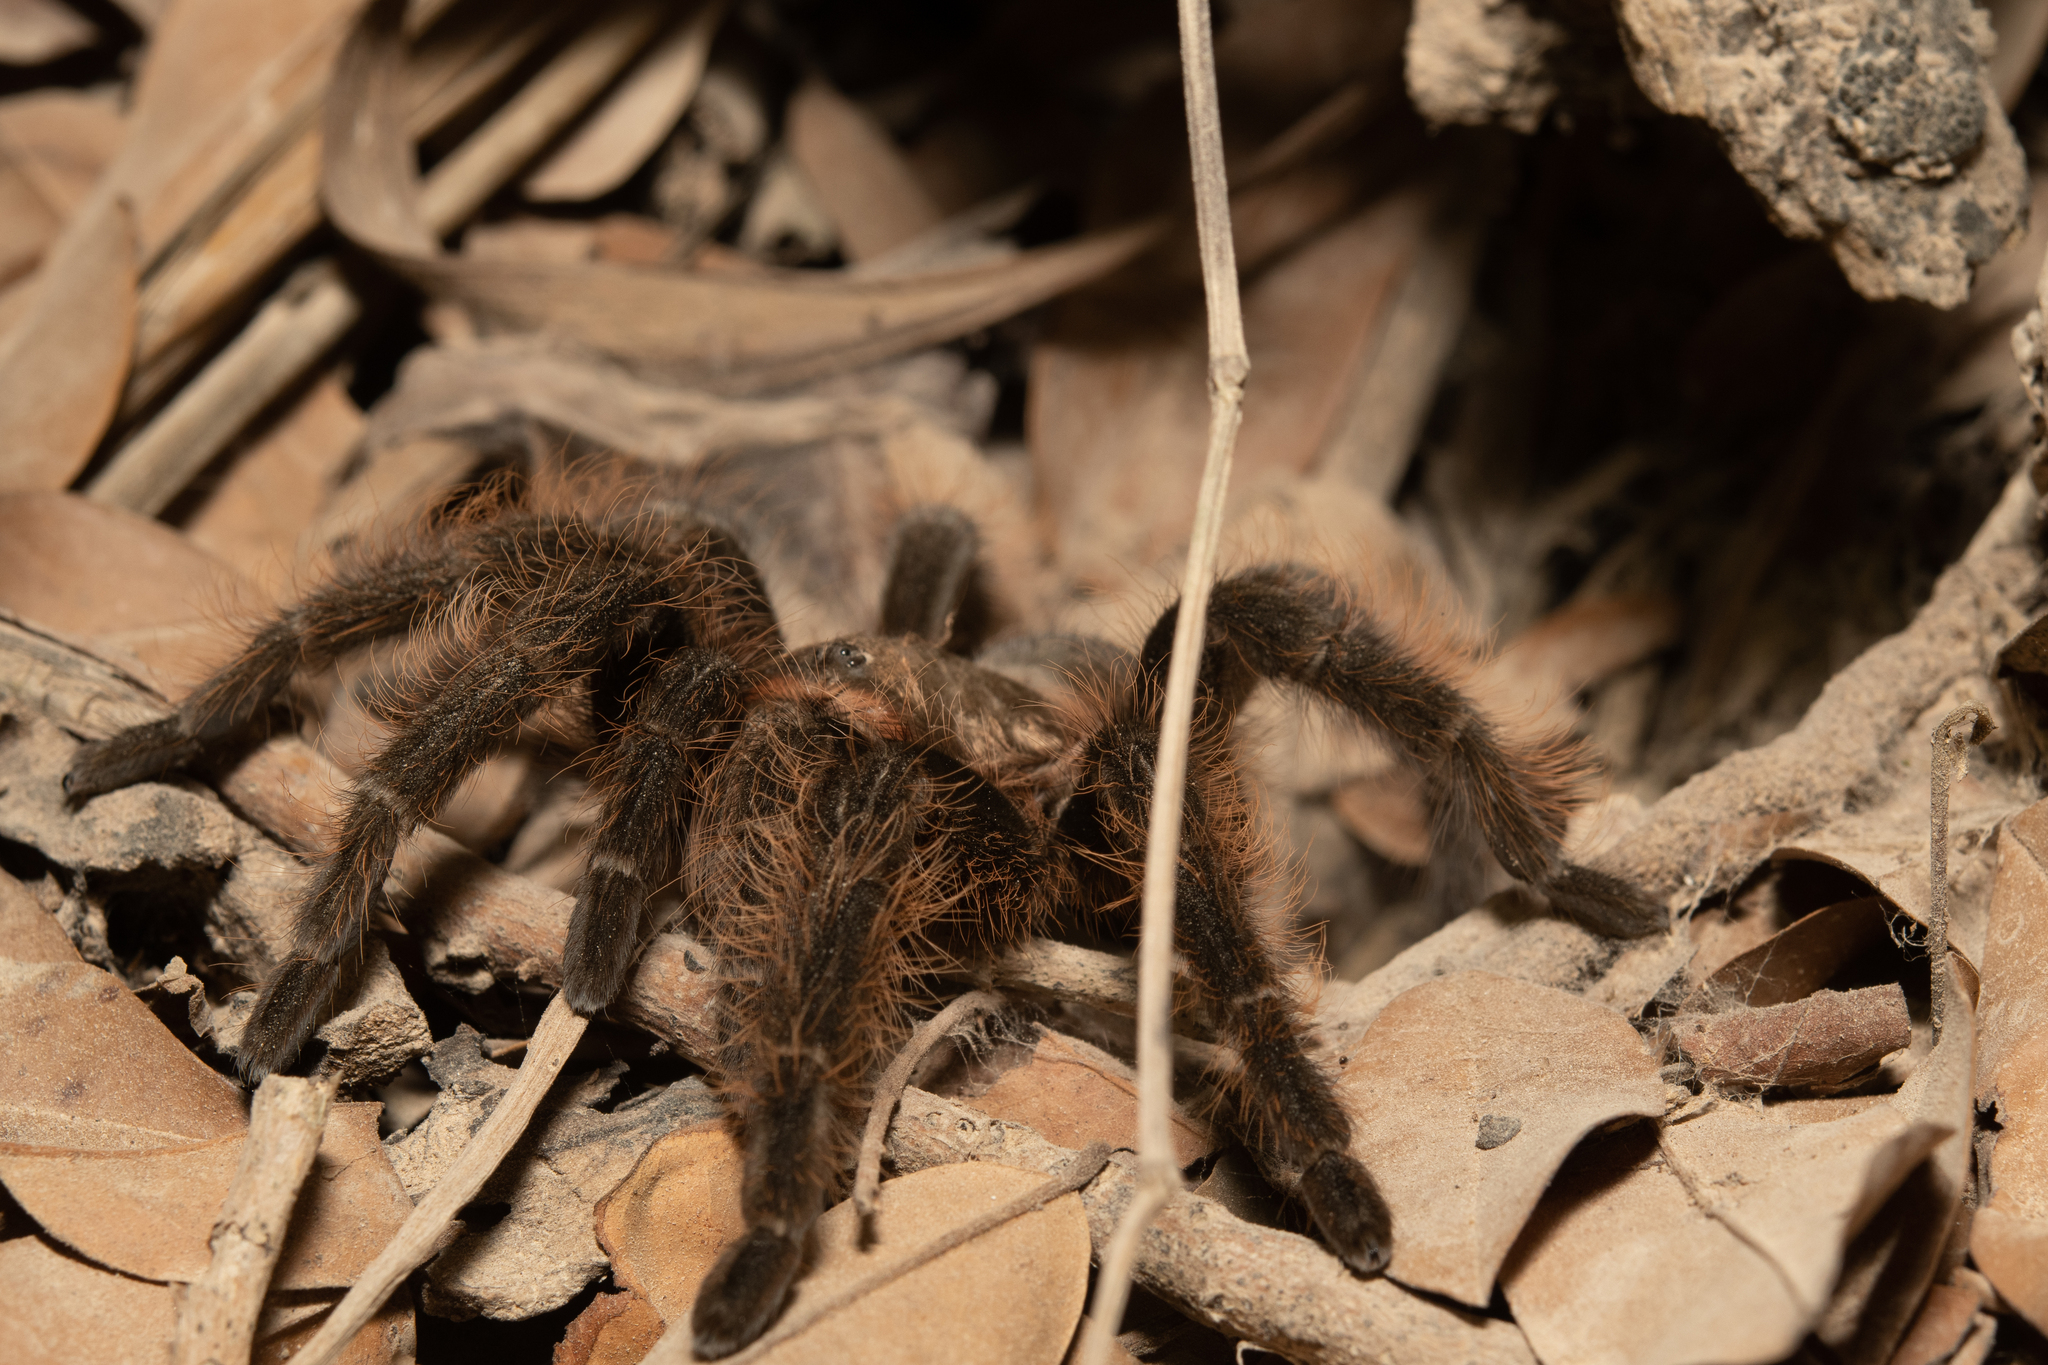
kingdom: Animalia
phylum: Arthropoda
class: Arachnida
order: Araneae
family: Theraphosidae
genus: Tliltocatl
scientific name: Tliltocatl albopilosus
